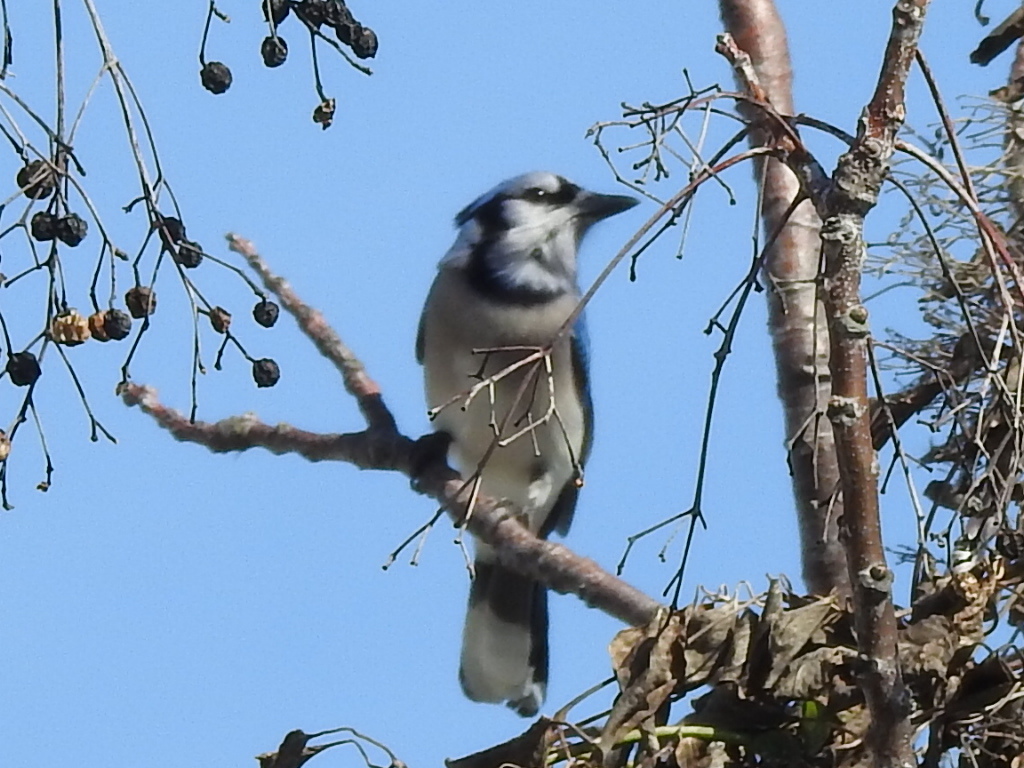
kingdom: Animalia
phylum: Chordata
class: Aves
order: Passeriformes
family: Corvidae
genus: Cyanocitta
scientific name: Cyanocitta cristata
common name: Blue jay
